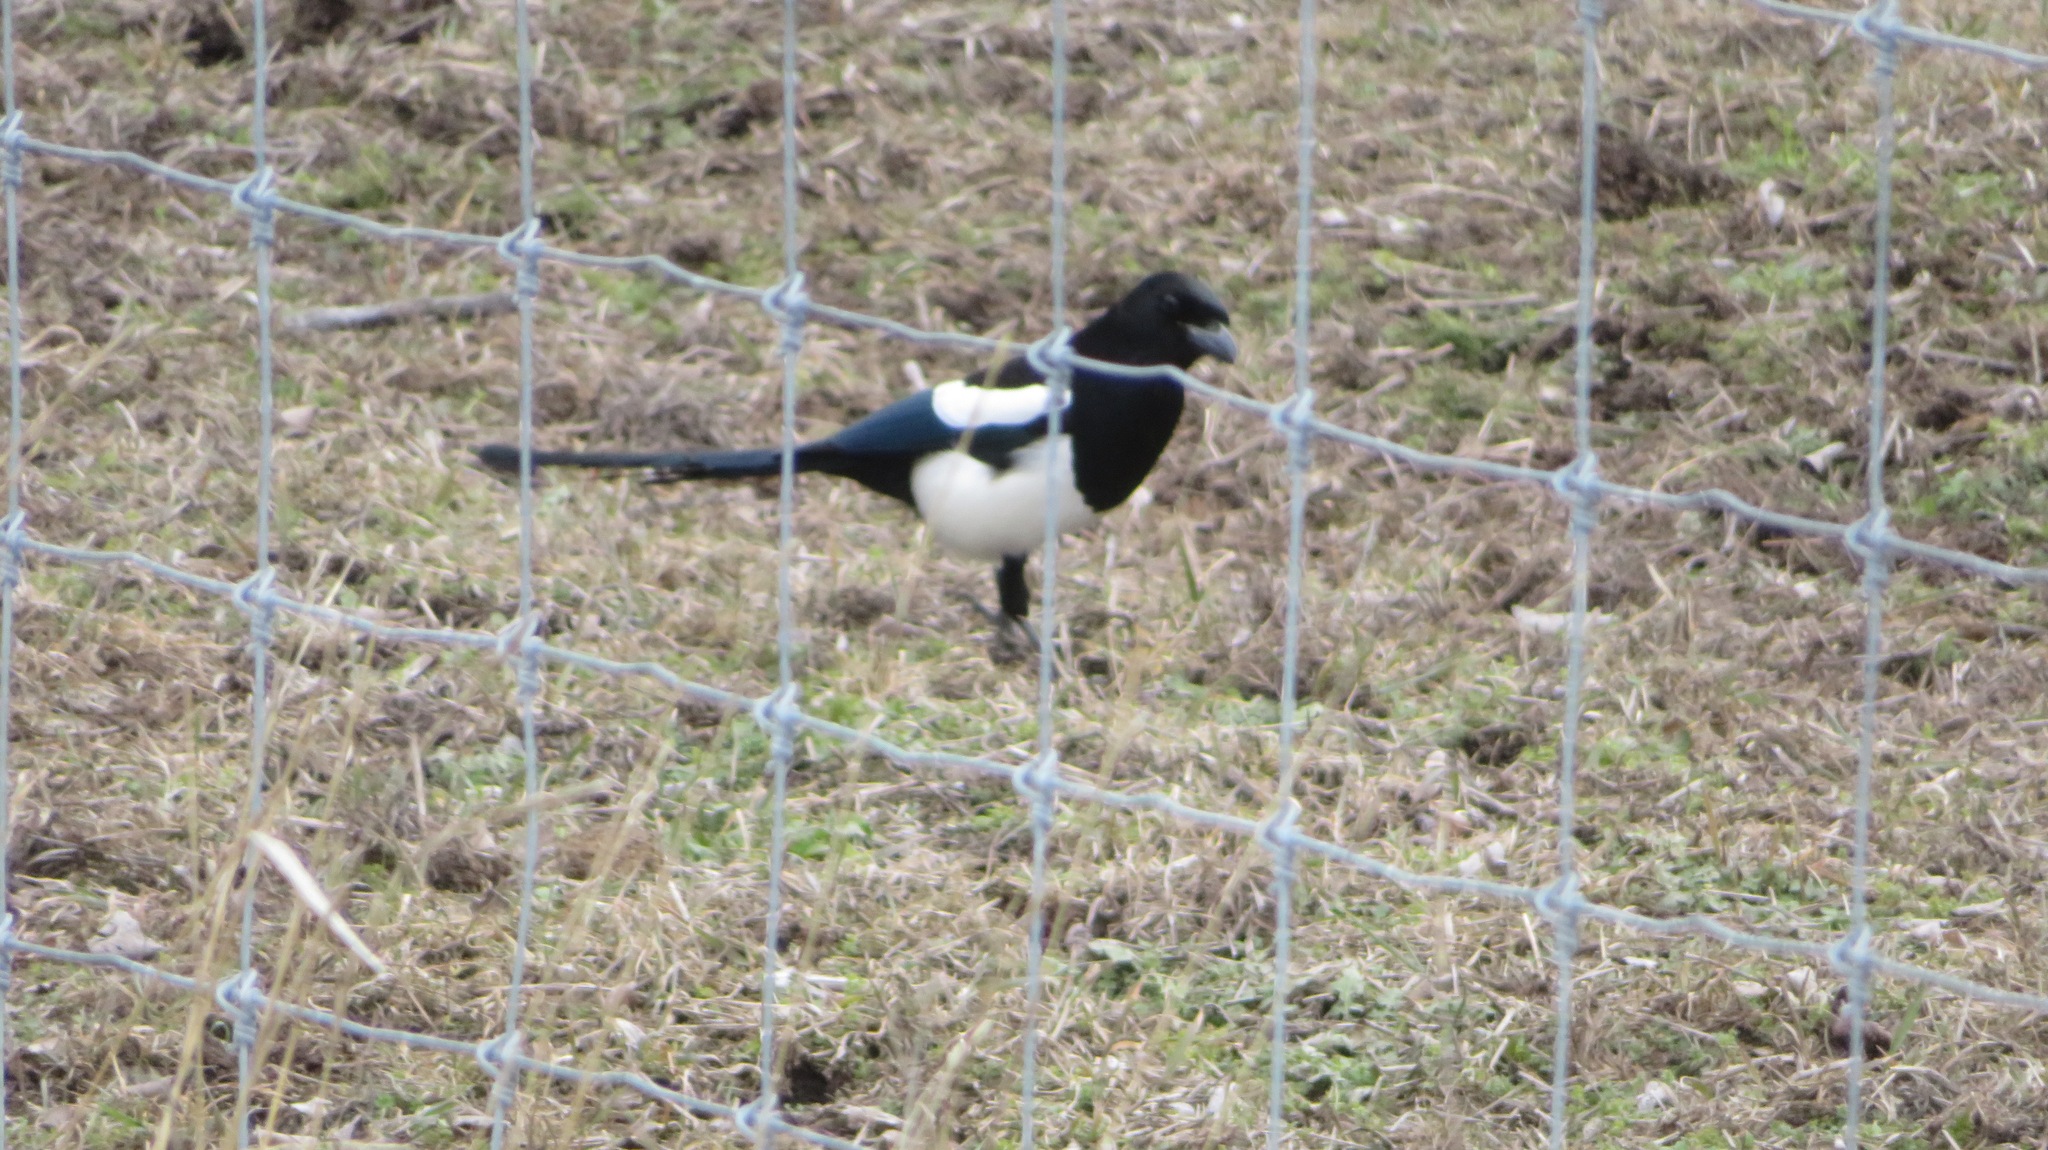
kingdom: Animalia
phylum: Chordata
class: Aves
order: Passeriformes
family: Corvidae
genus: Pica
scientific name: Pica hudsonia
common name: Black-billed magpie
